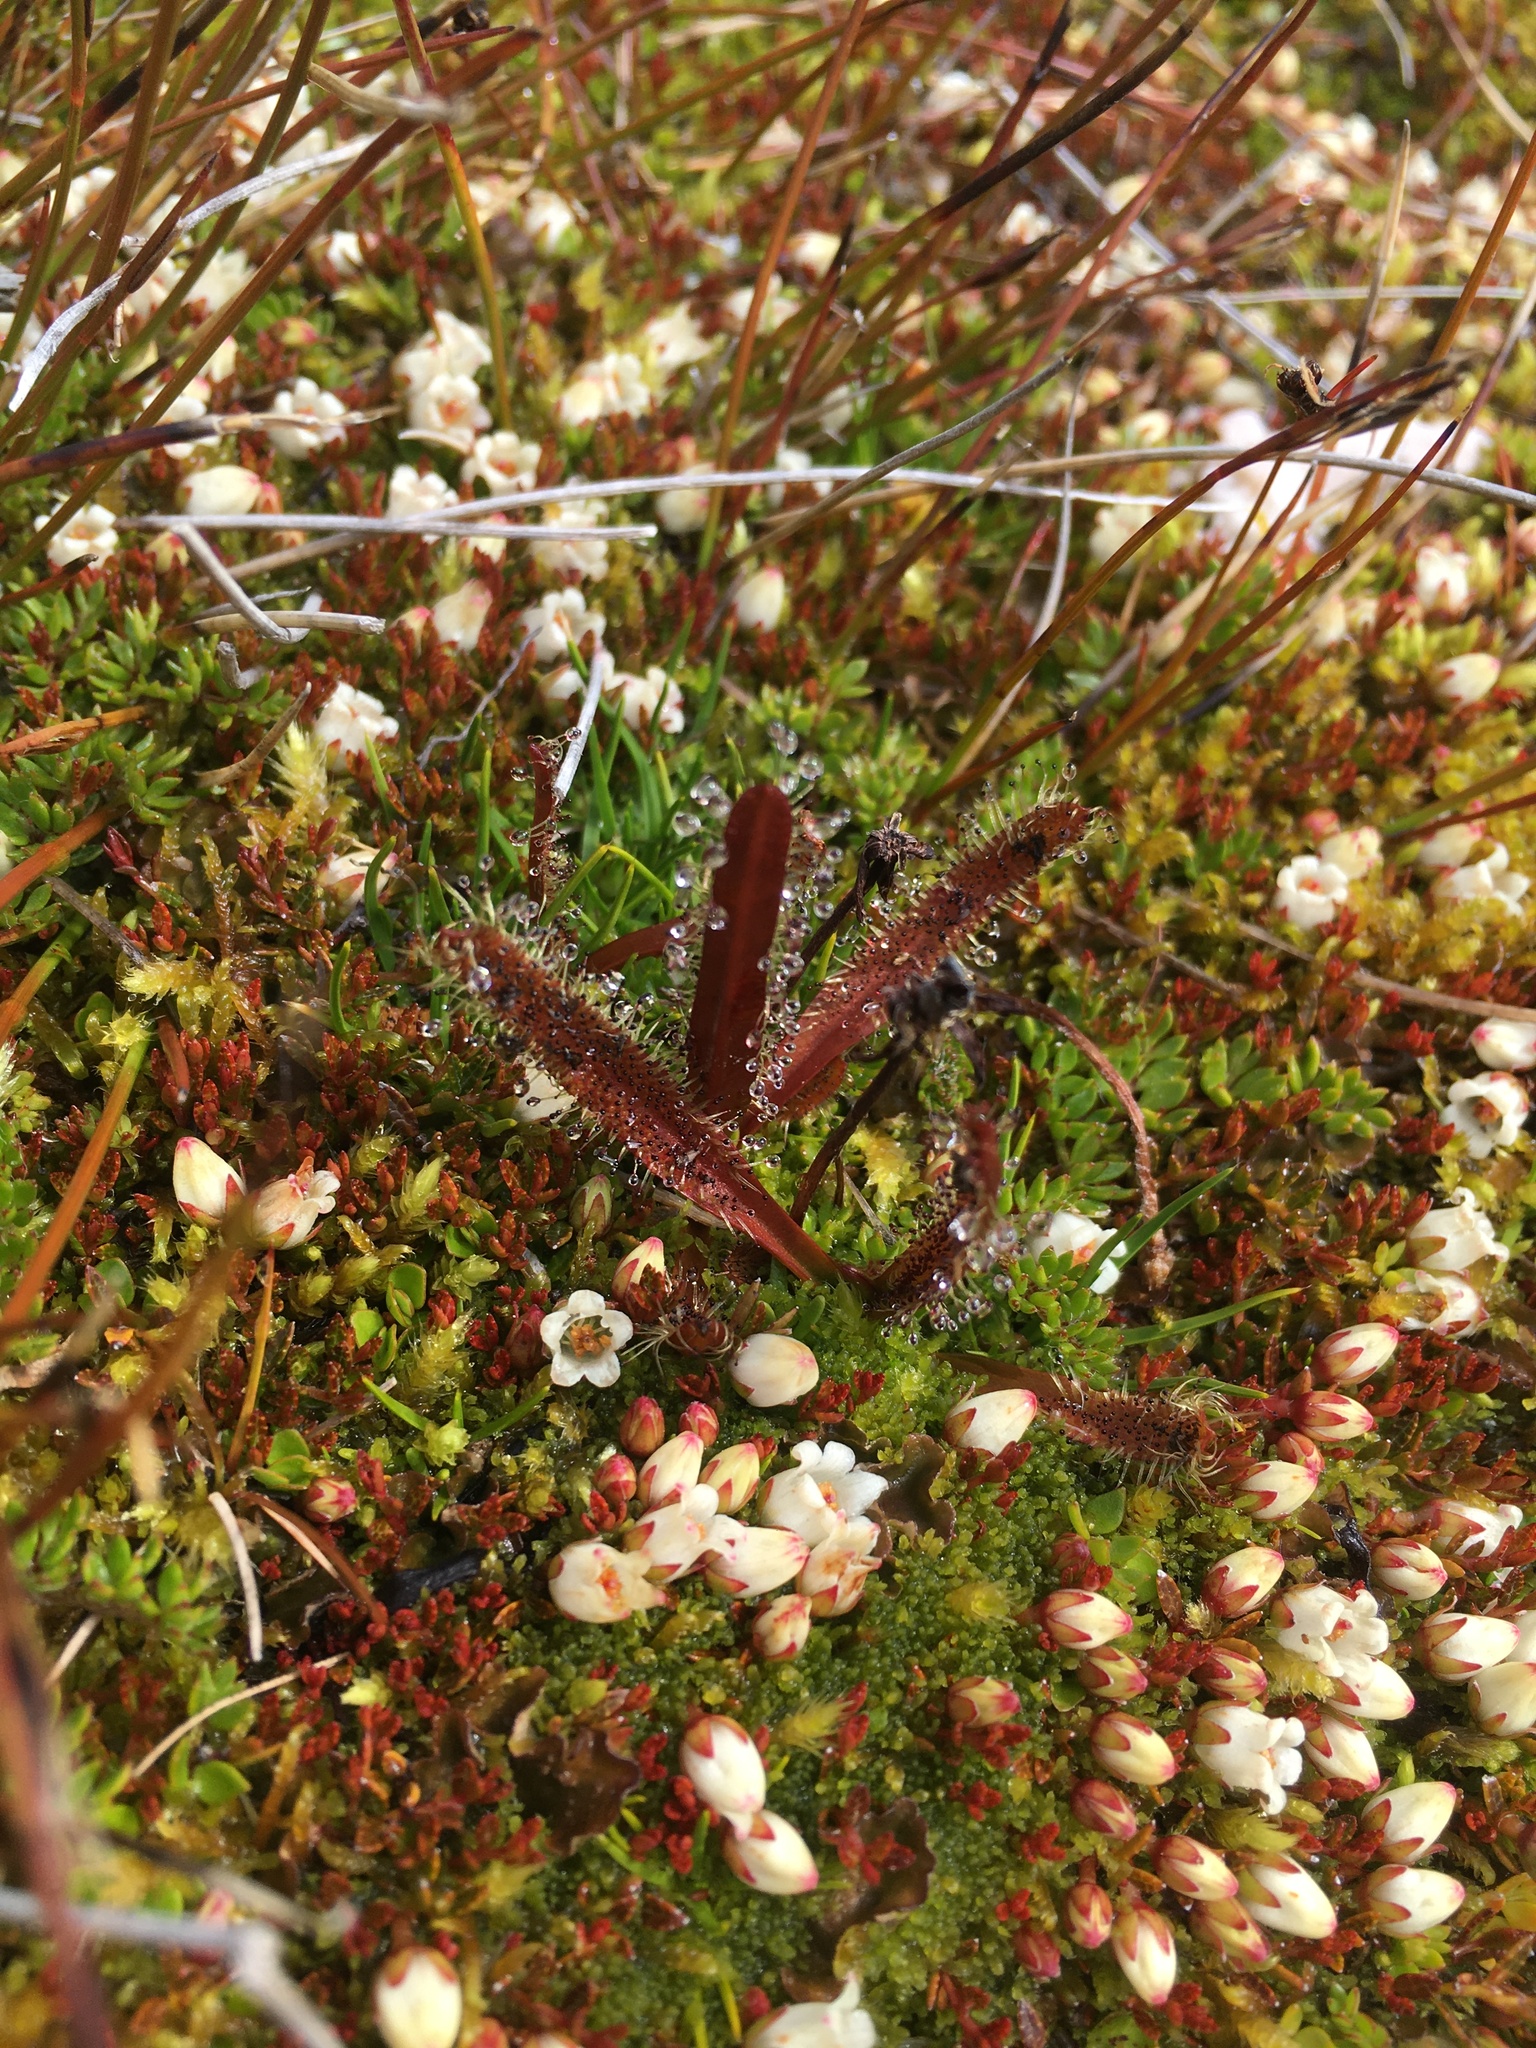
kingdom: Plantae
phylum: Tracheophyta
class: Magnoliopsida
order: Caryophyllales
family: Droseraceae
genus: Drosera
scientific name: Drosera arcturi
